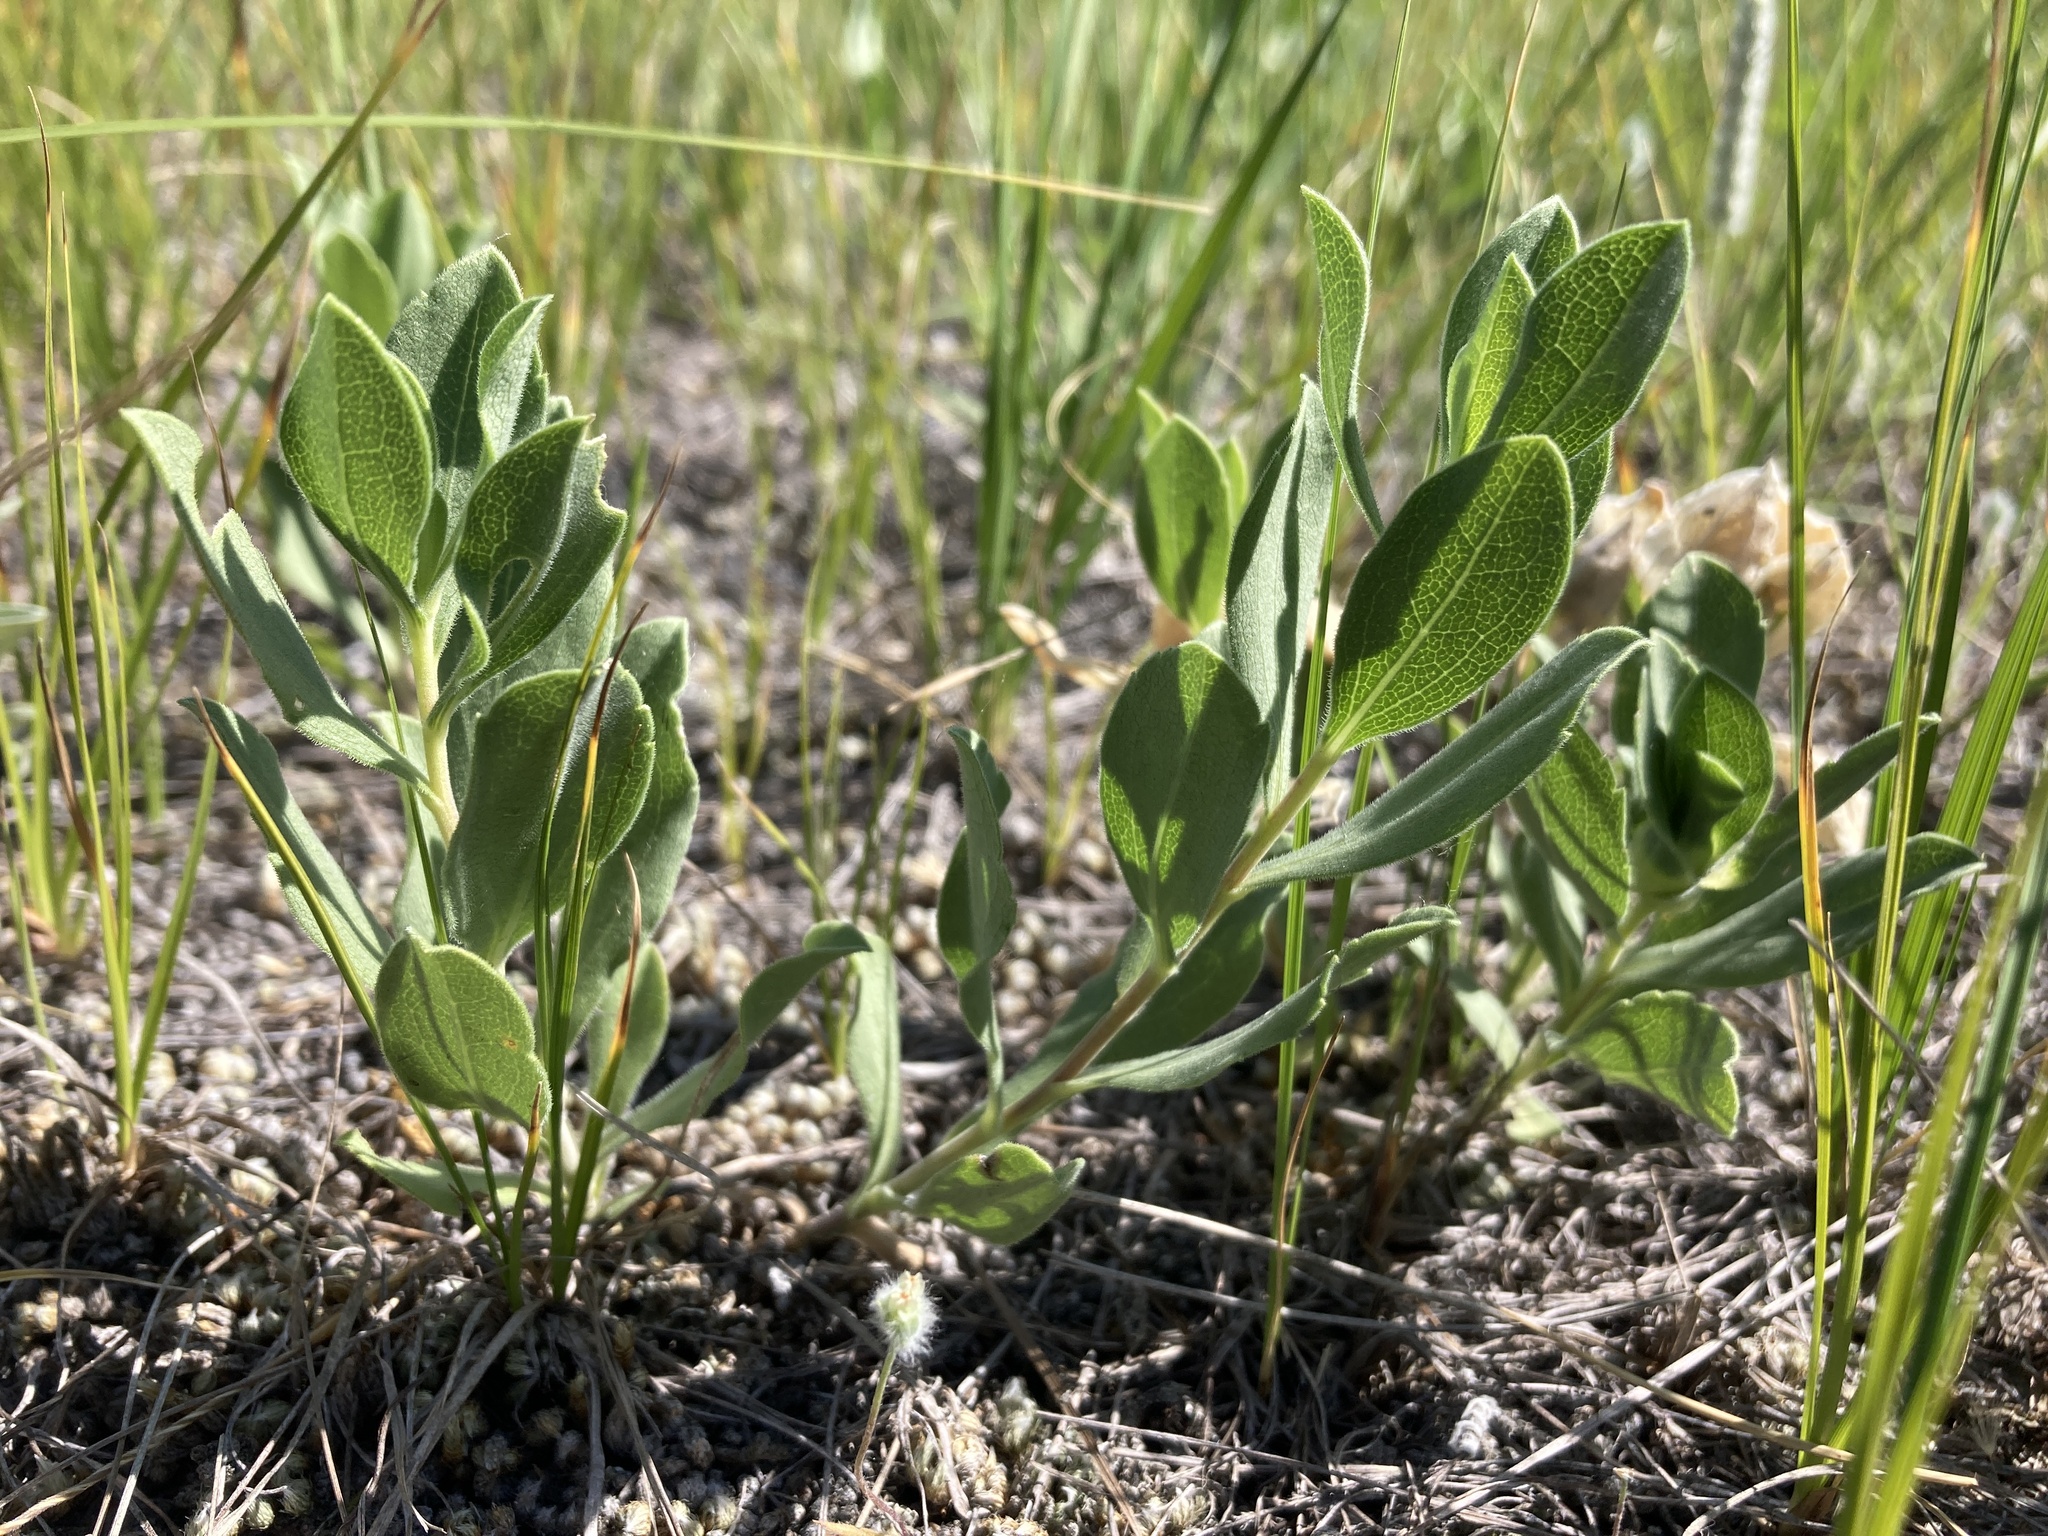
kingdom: Plantae
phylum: Tracheophyta
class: Magnoliopsida
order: Asterales
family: Asteraceae
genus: Solidago
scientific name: Solidago mollis
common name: Ashly goldenrod
